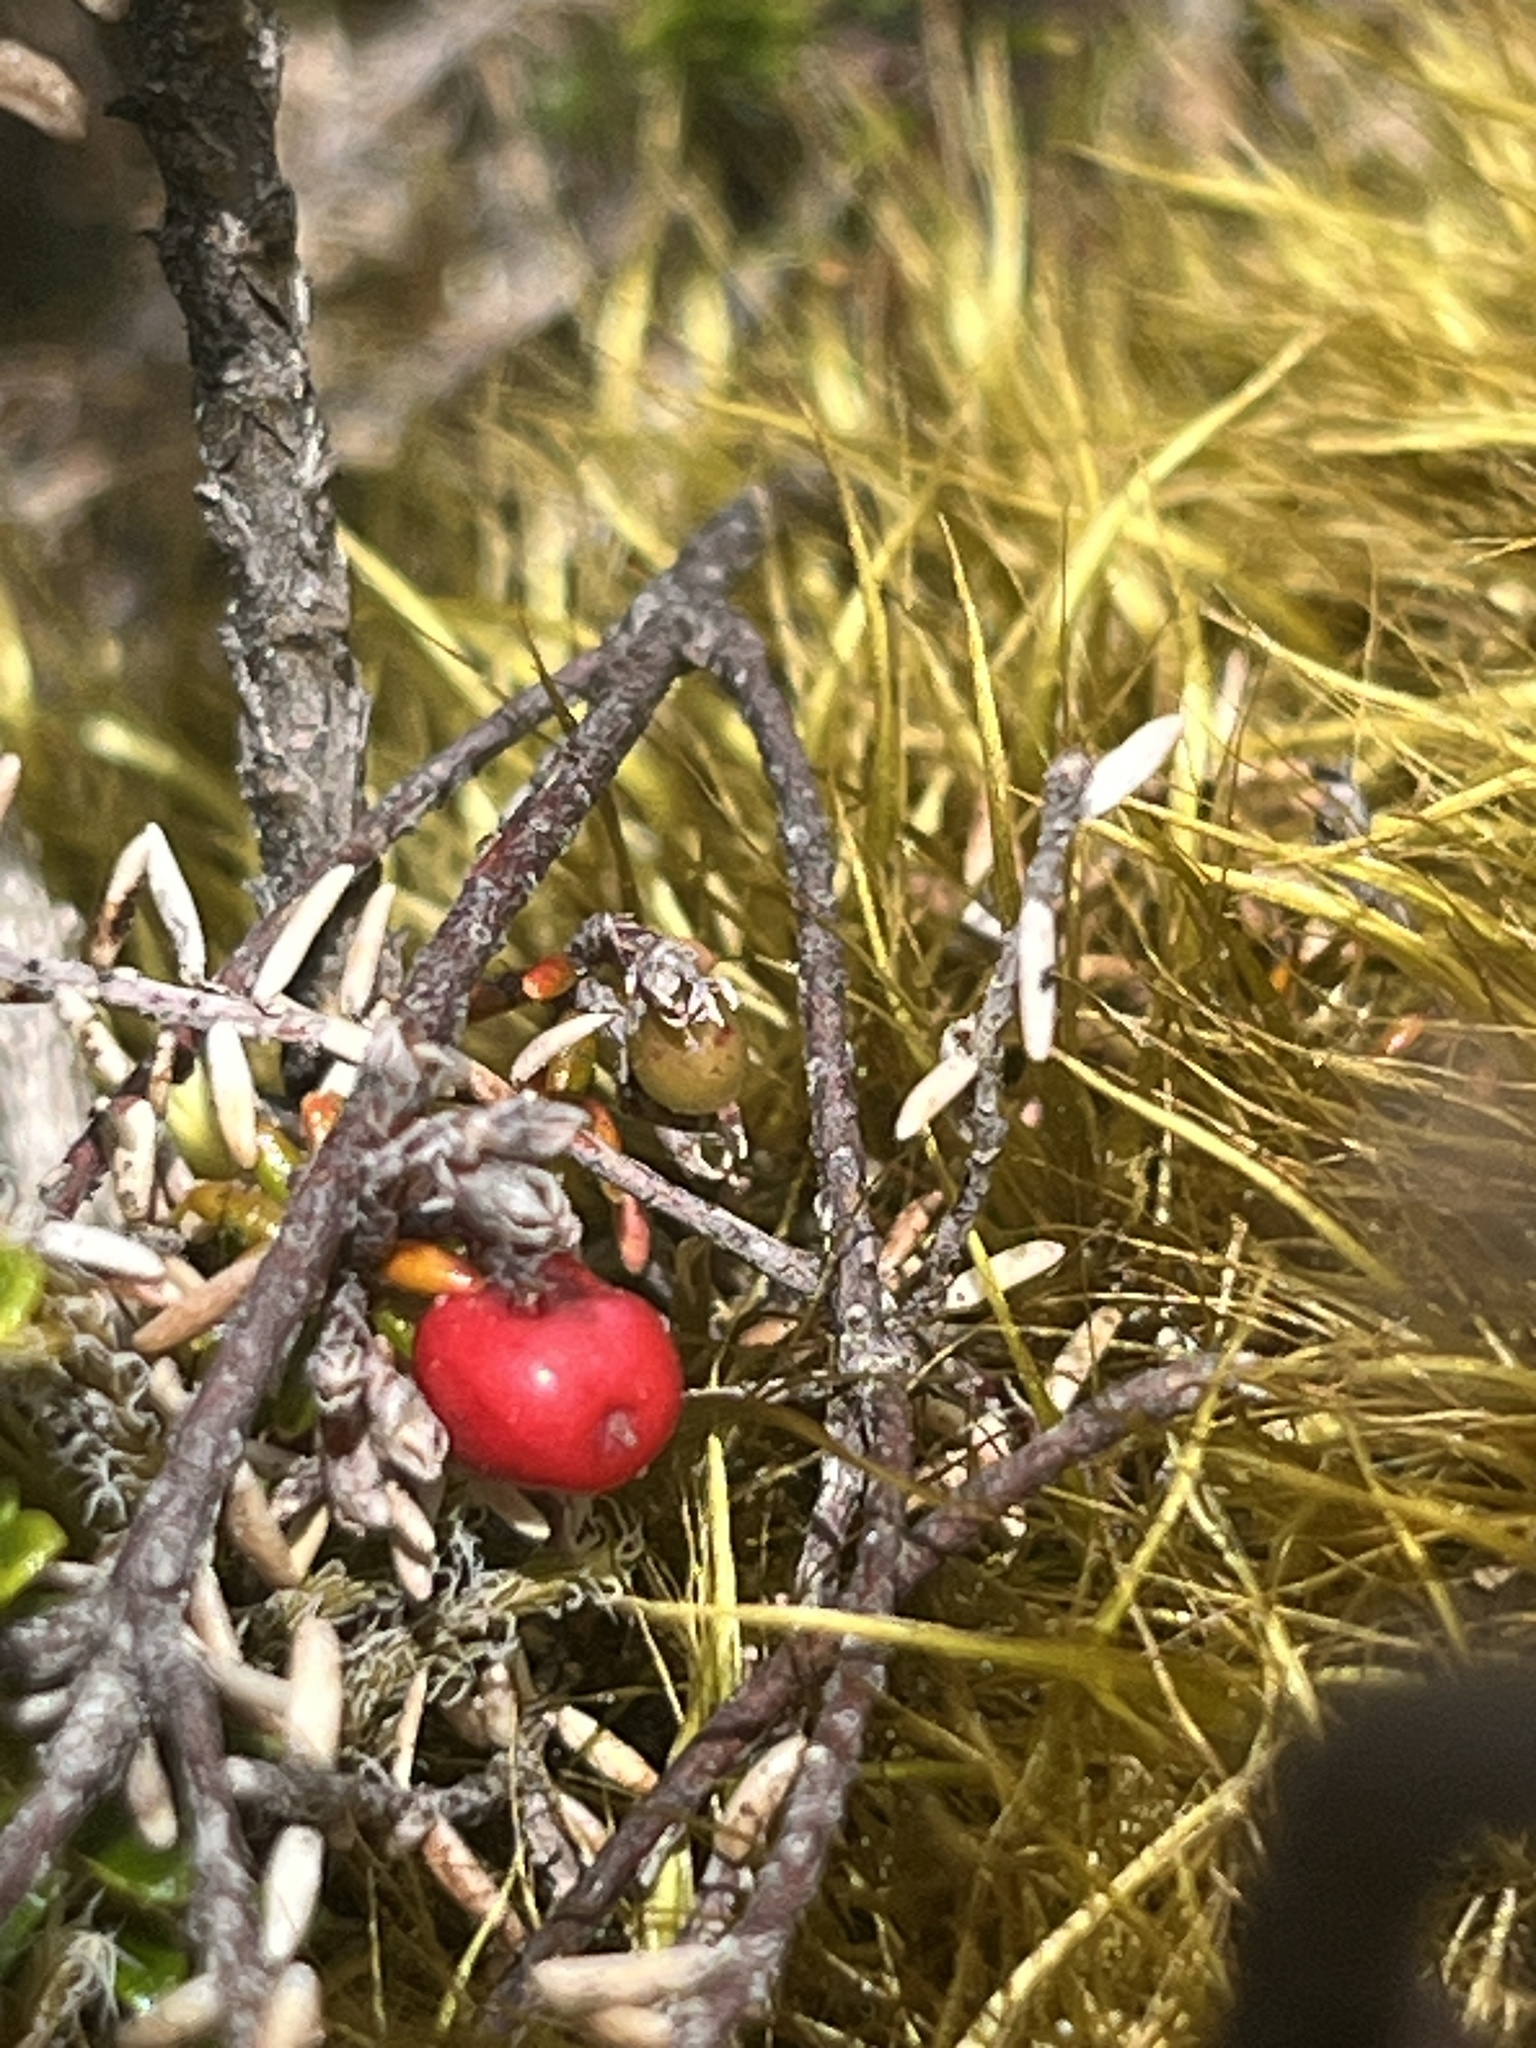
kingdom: Plantae
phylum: Tracheophyta
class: Magnoliopsida
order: Ericales
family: Ericaceae
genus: Androstoma
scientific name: Androstoma empetrifolia
